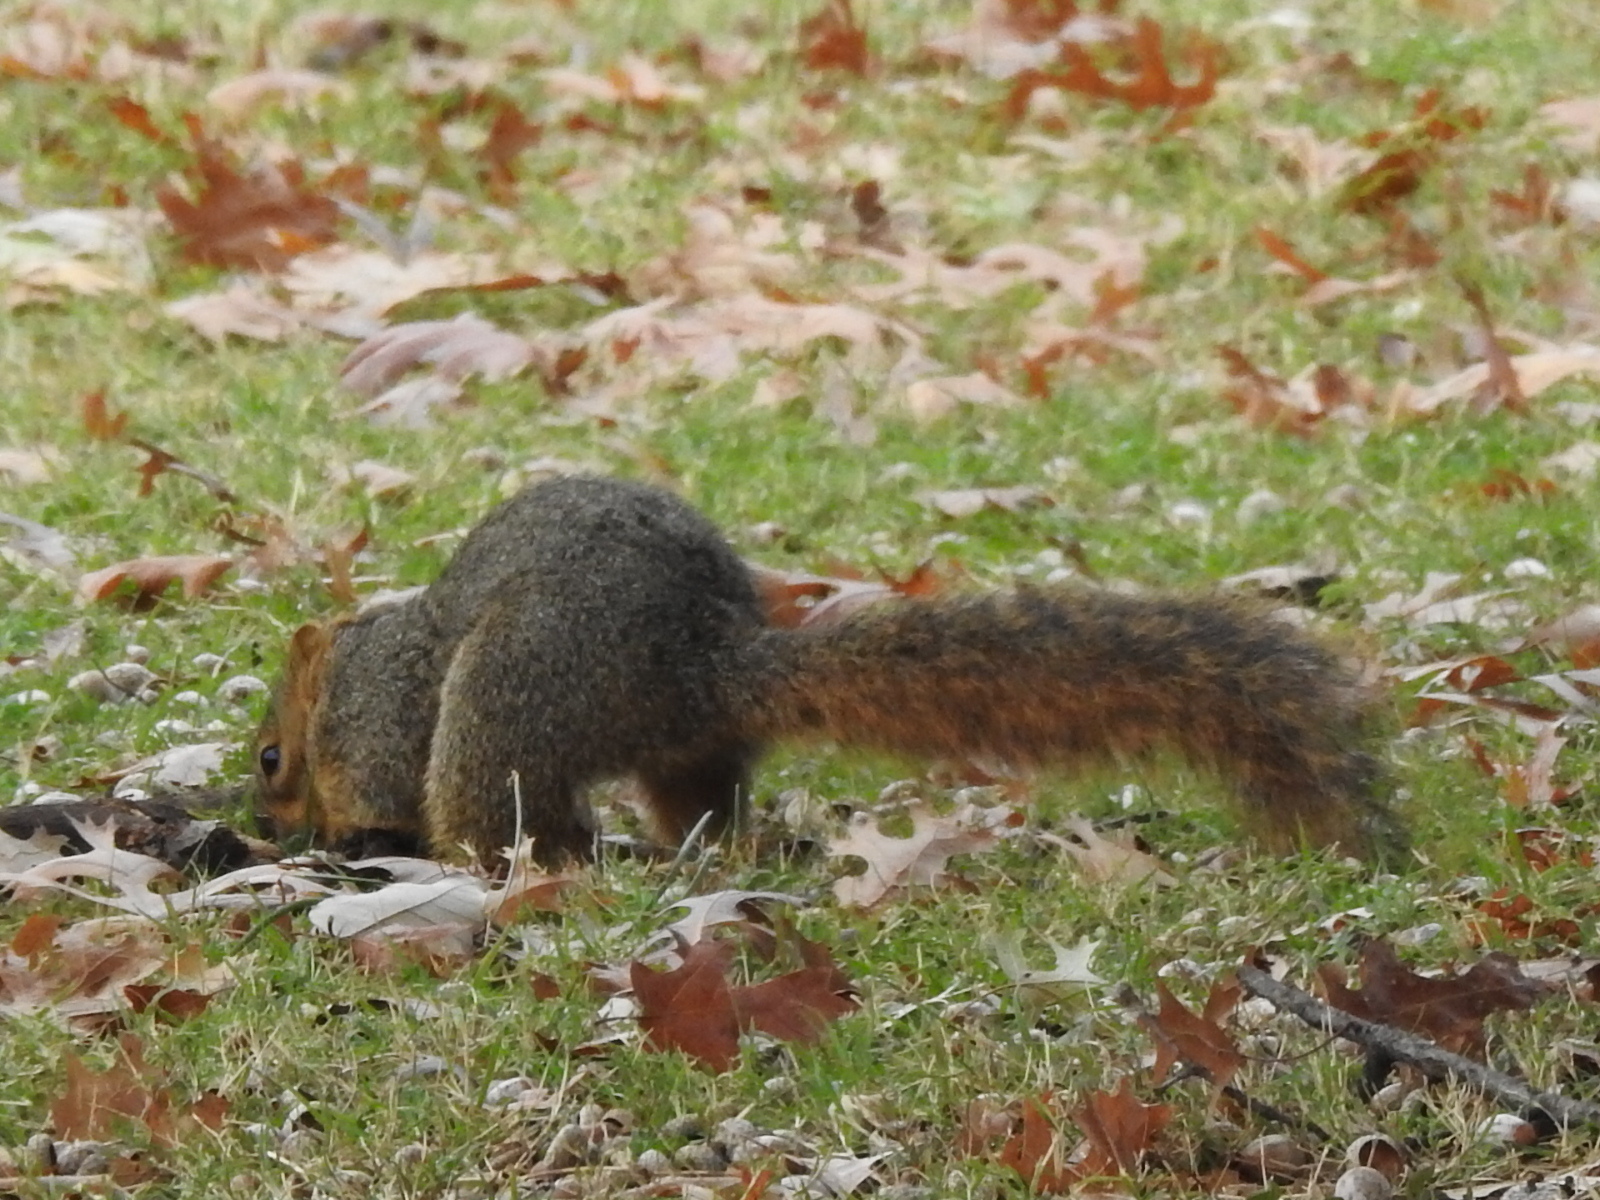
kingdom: Animalia
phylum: Chordata
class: Mammalia
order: Rodentia
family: Sciuridae
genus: Sciurus
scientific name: Sciurus niger
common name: Fox squirrel
